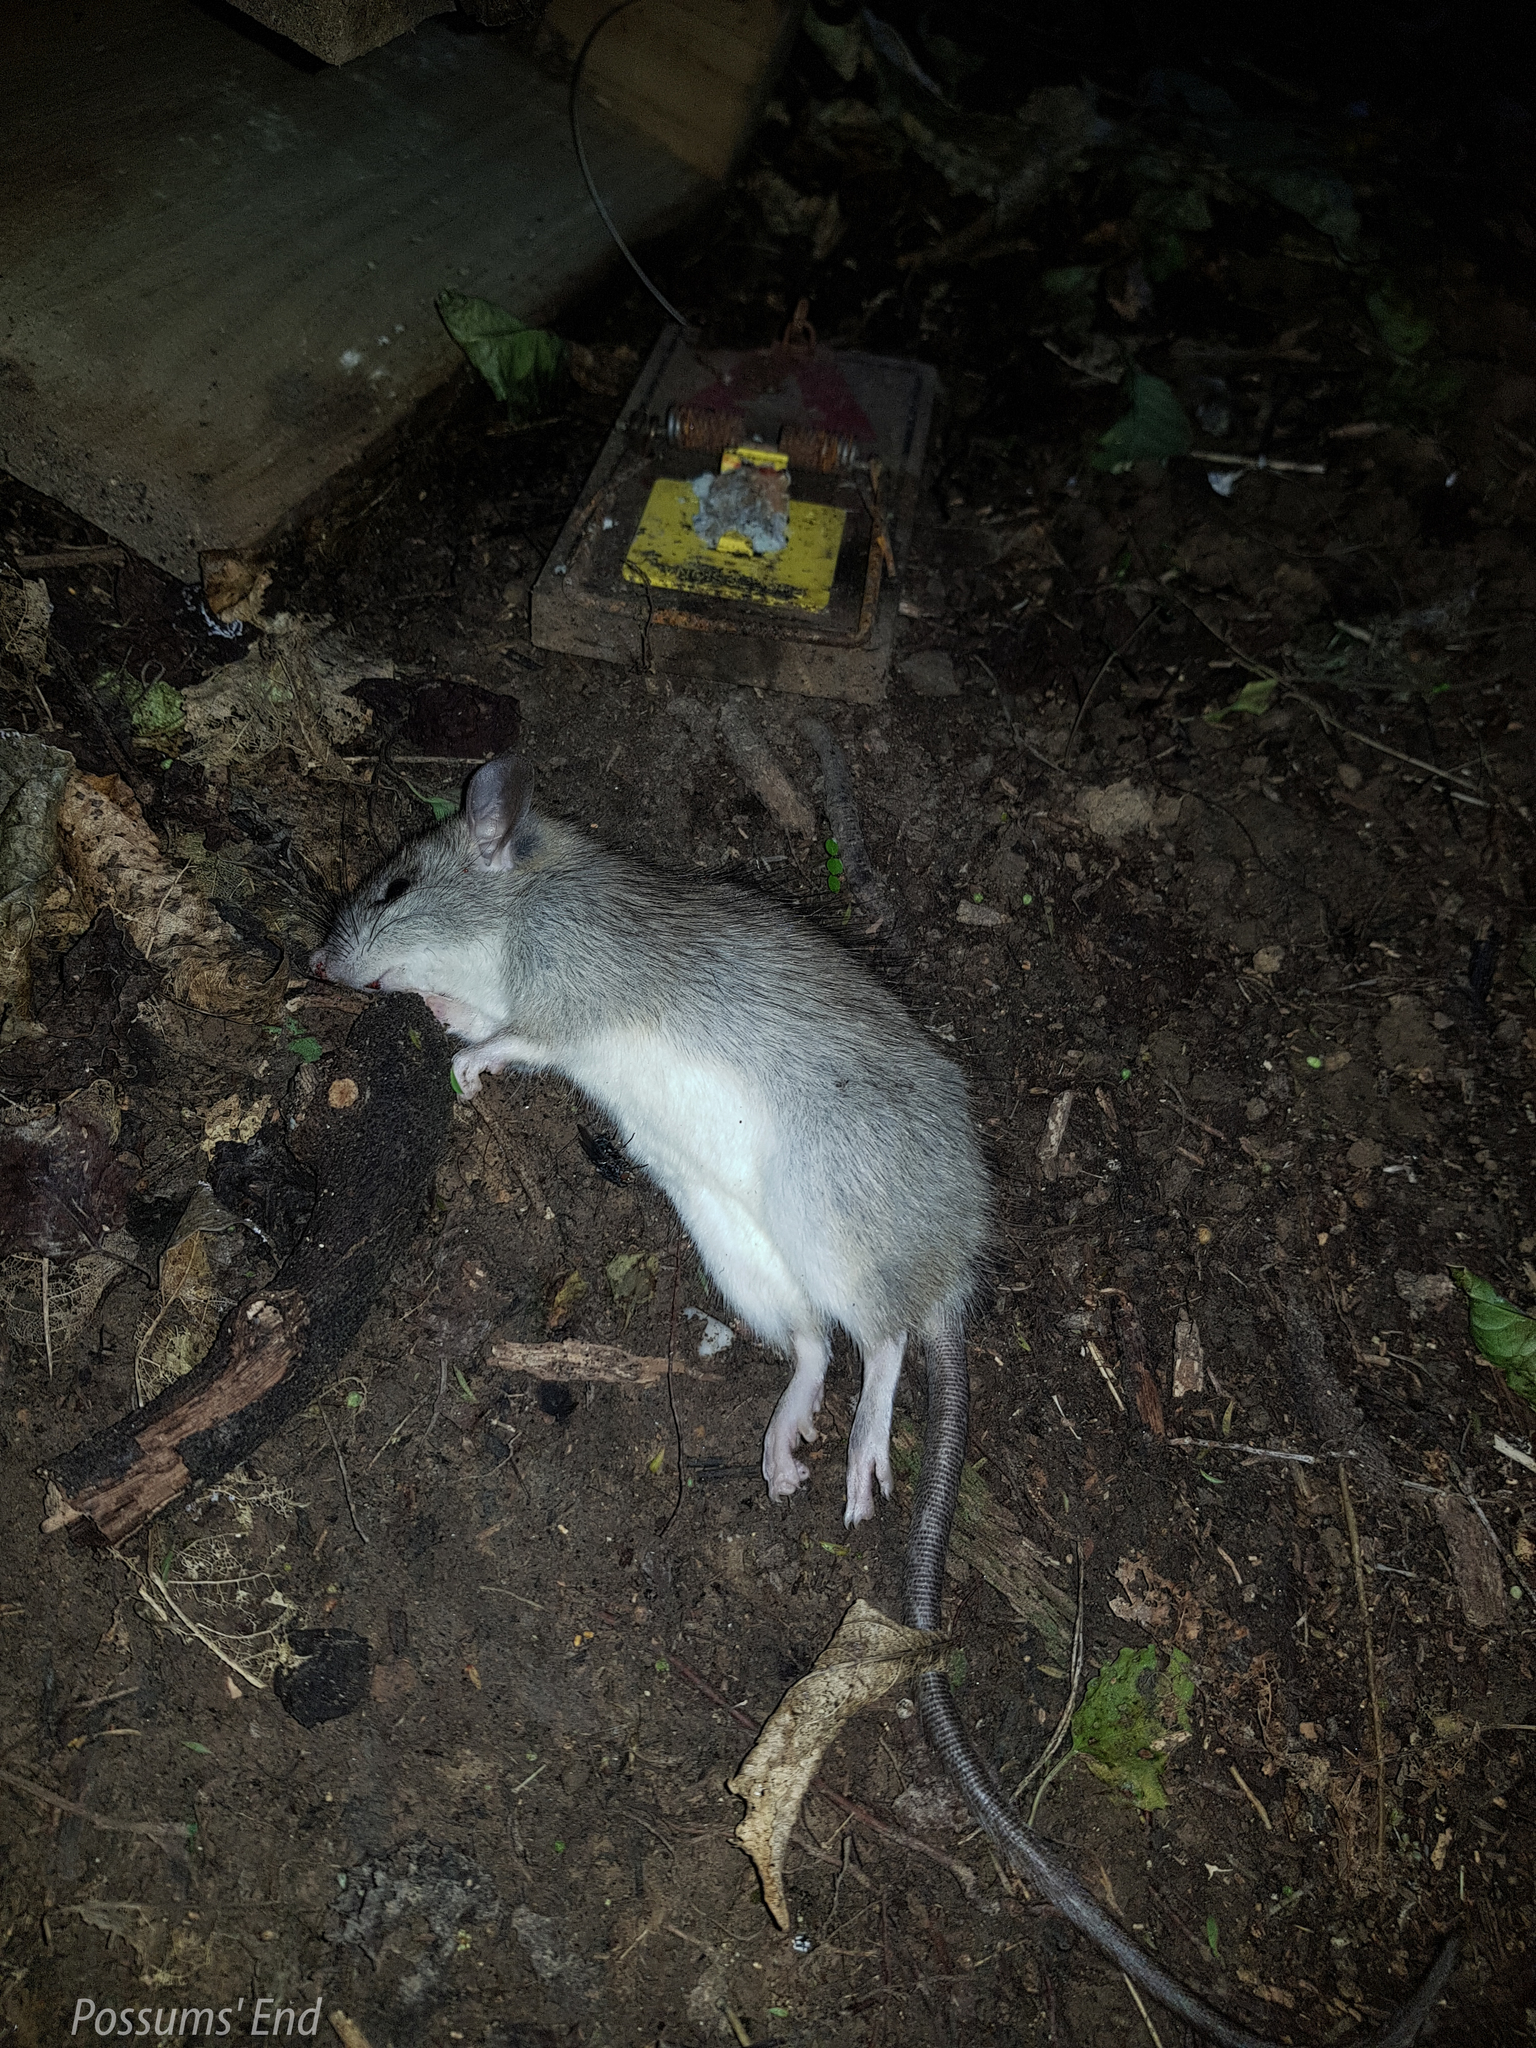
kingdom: Animalia
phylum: Chordata
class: Mammalia
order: Rodentia
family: Muridae
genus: Rattus
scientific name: Rattus rattus
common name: Black rat
